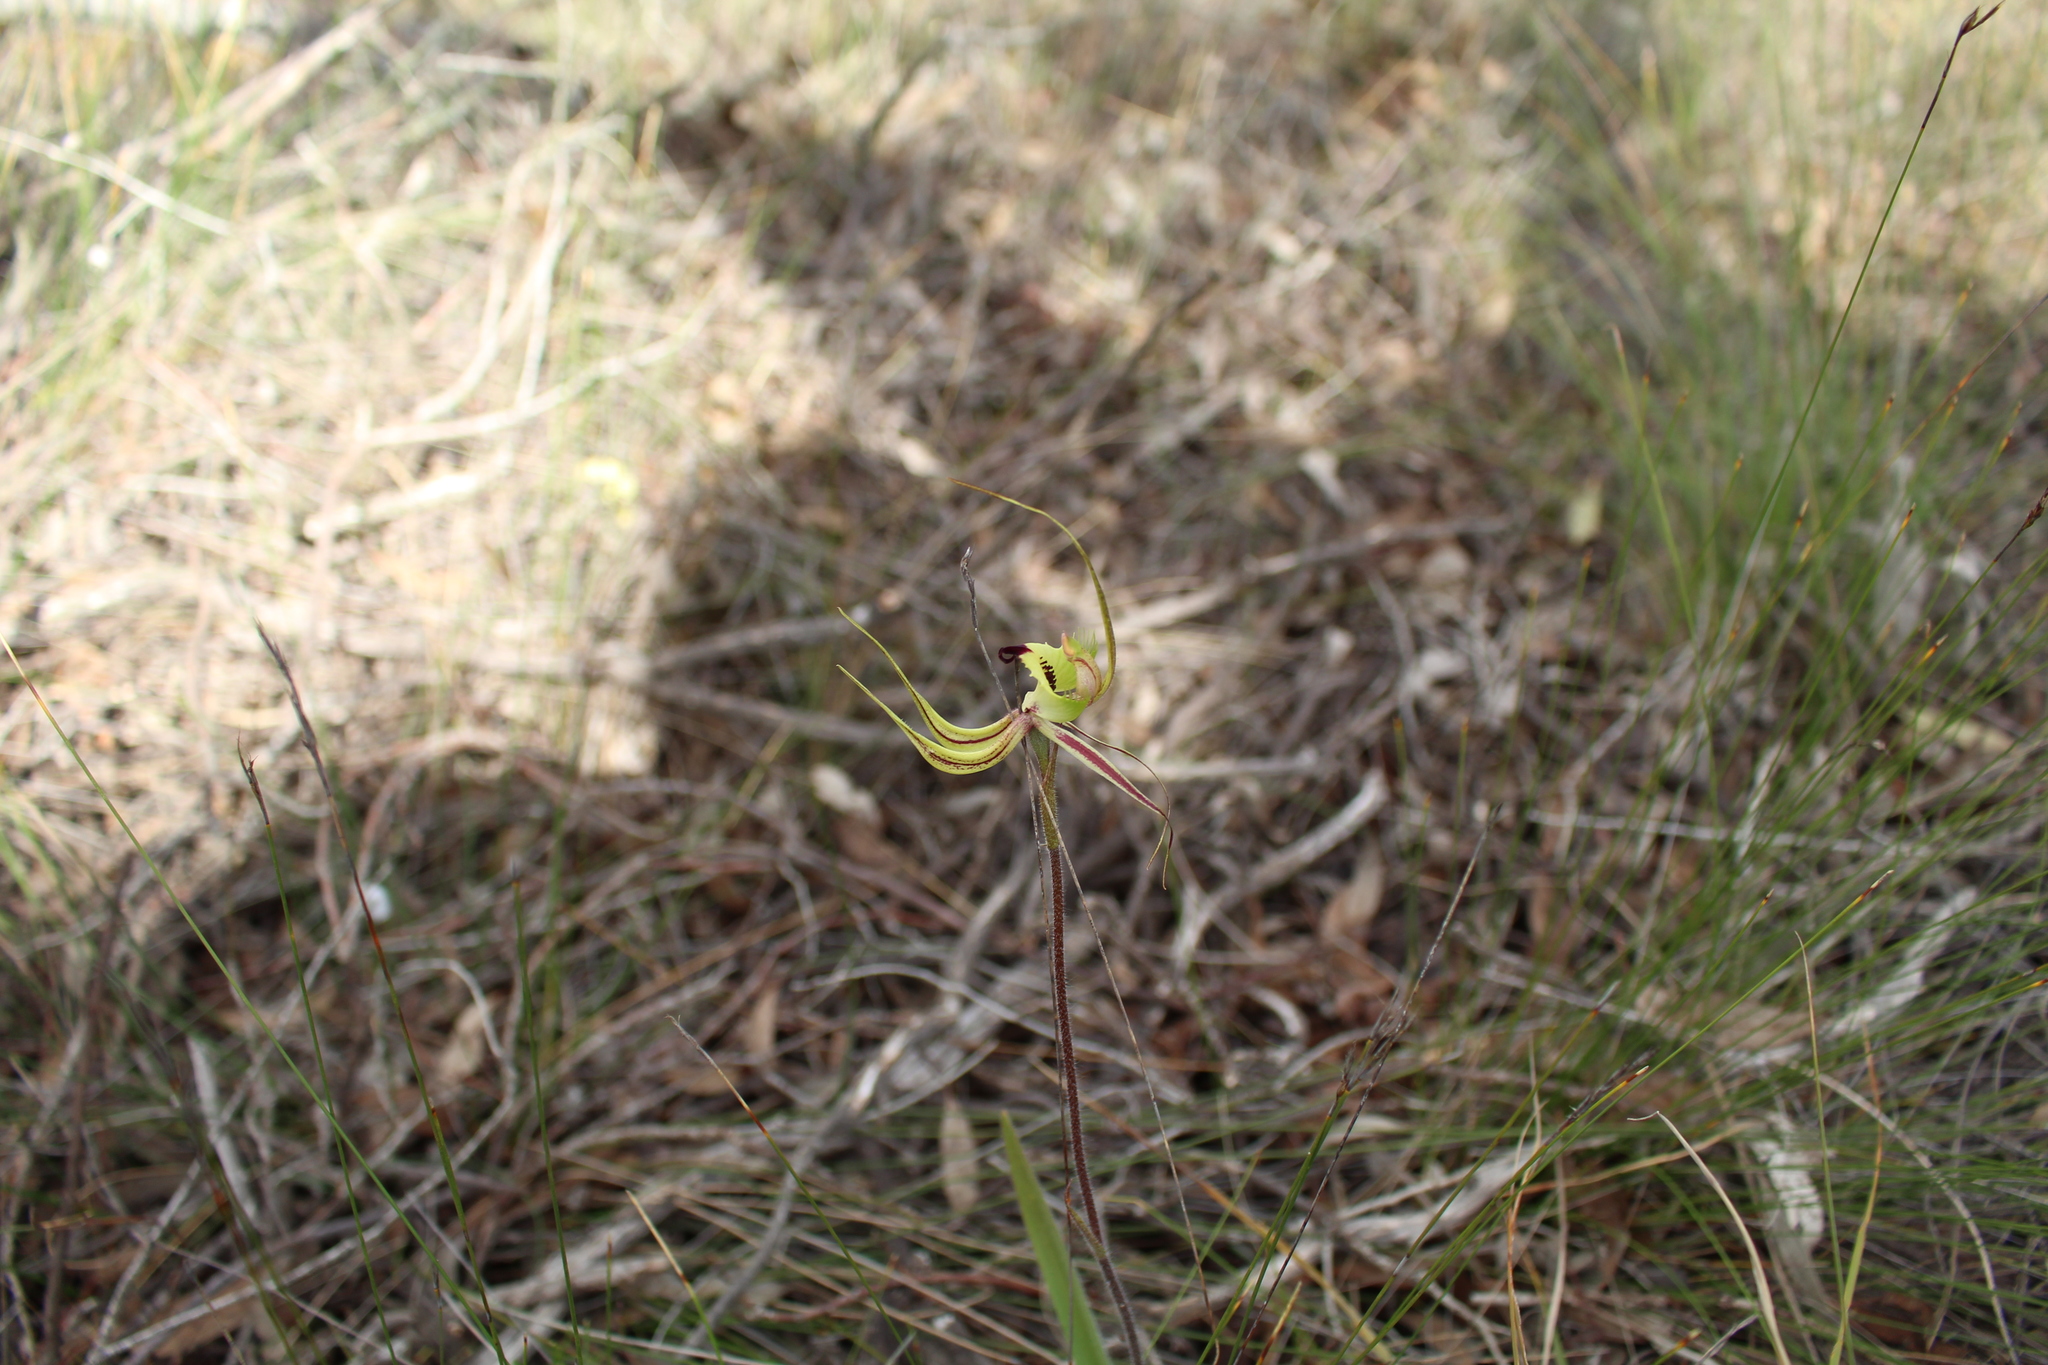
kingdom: Plantae
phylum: Tracheophyta
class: Liliopsida
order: Asparagales
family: Orchidaceae
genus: Caladenia
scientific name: Caladenia falcata
